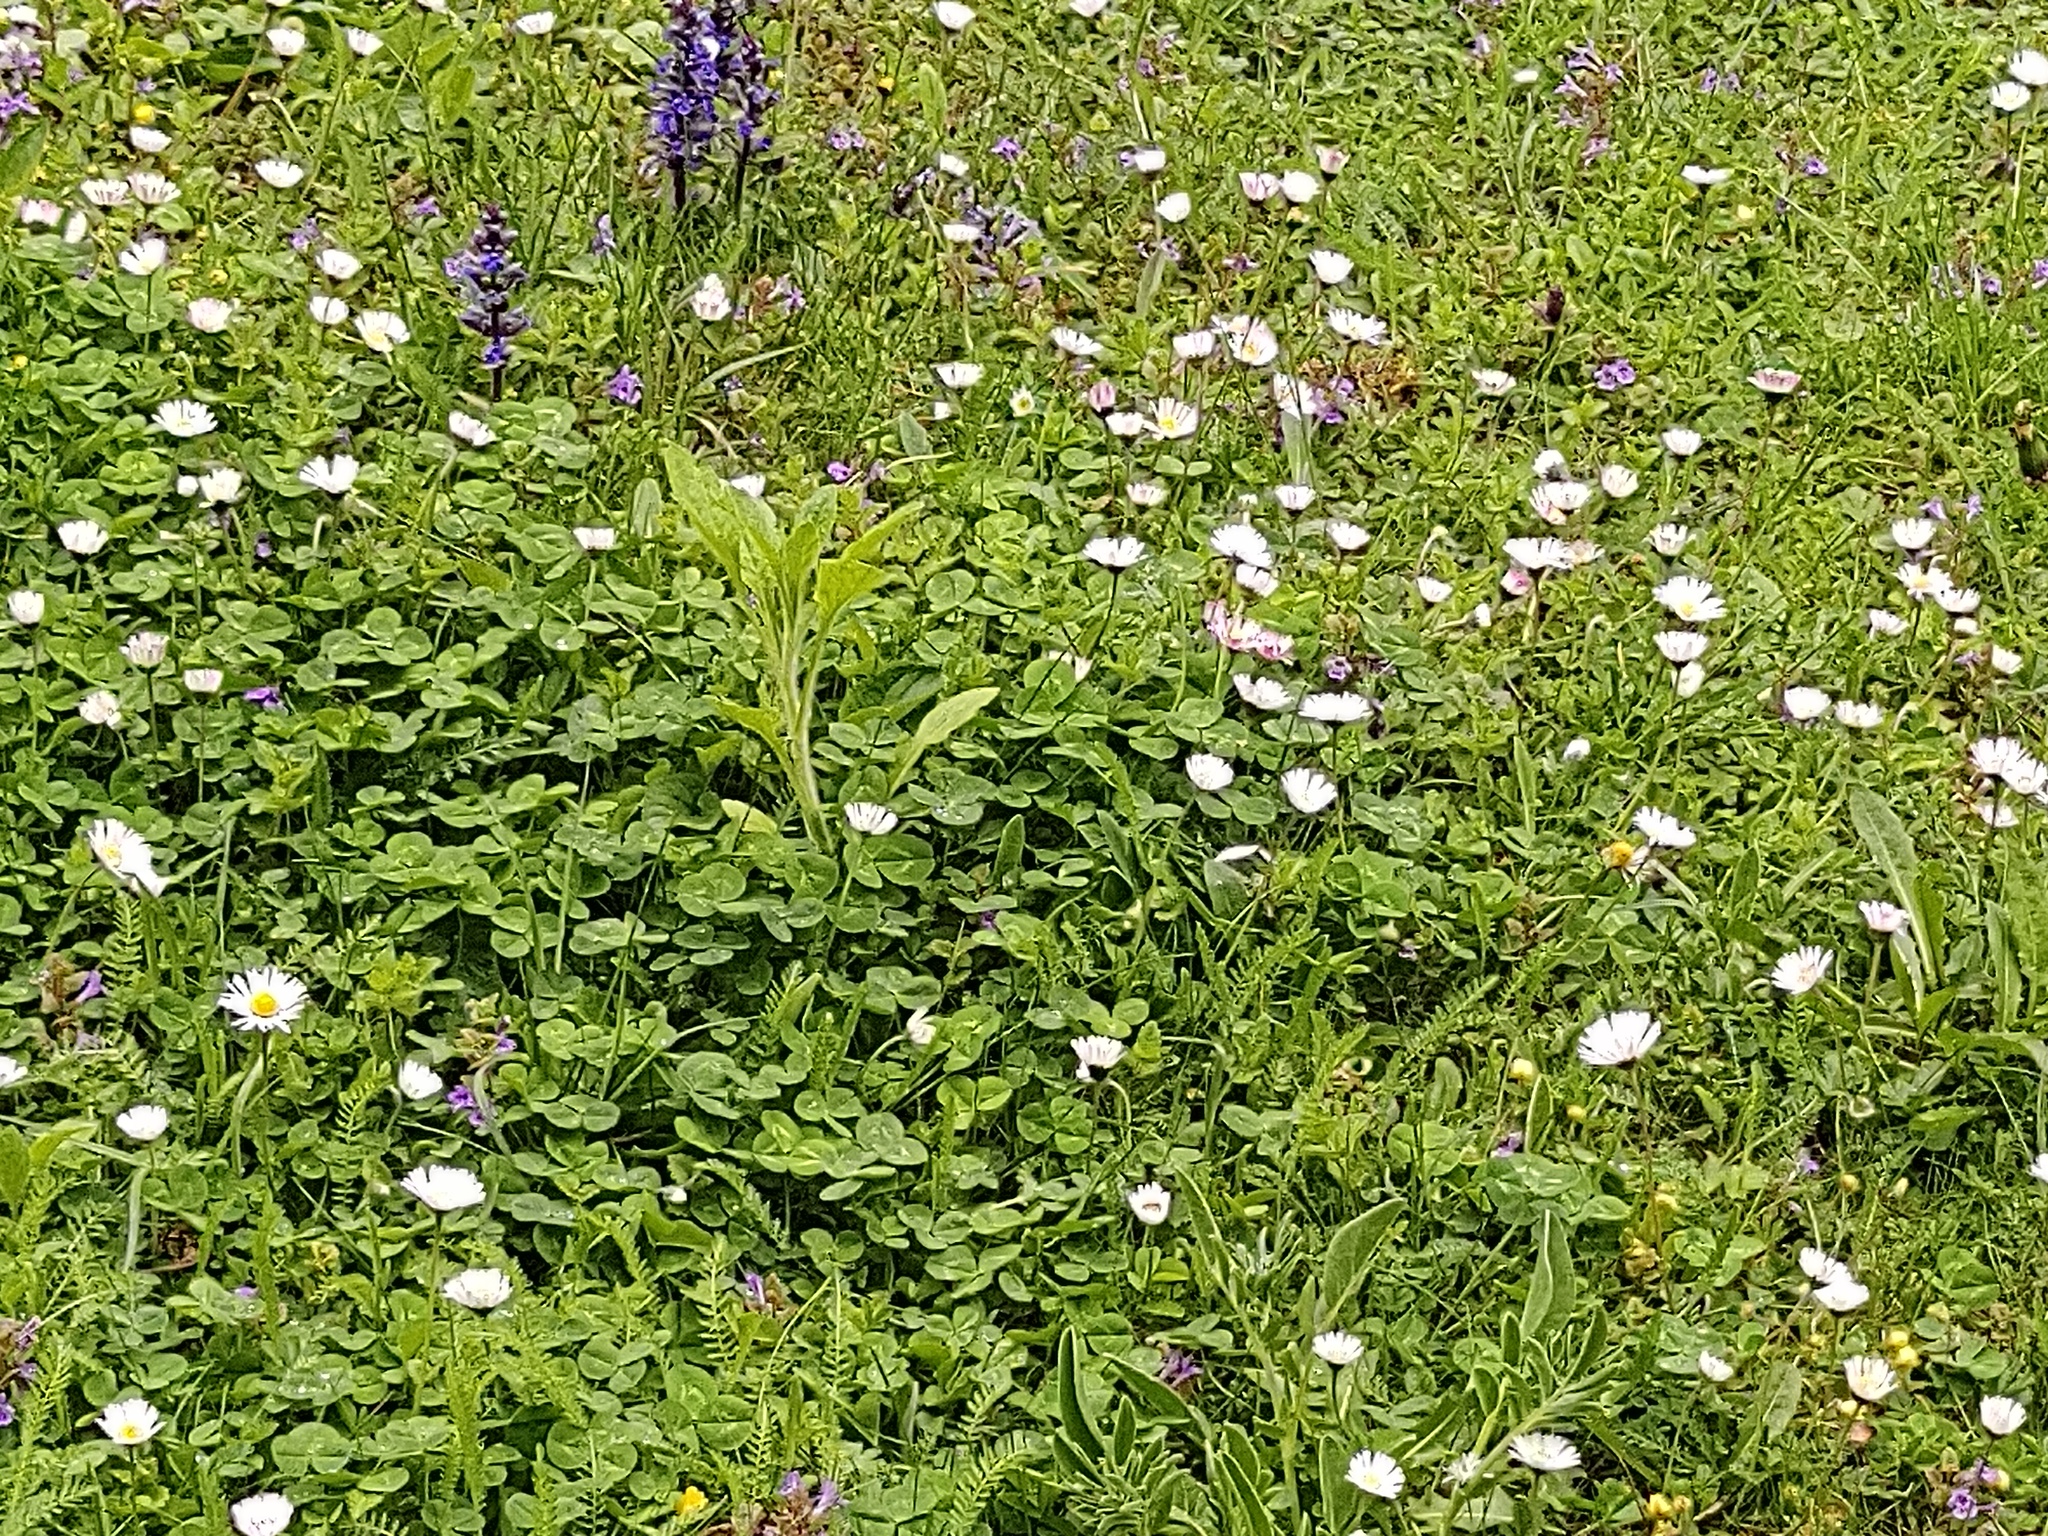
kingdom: Plantae
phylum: Tracheophyta
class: Magnoliopsida
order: Asterales
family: Asteraceae
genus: Erigeron
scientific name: Erigeron annuus
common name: Tall fleabane
